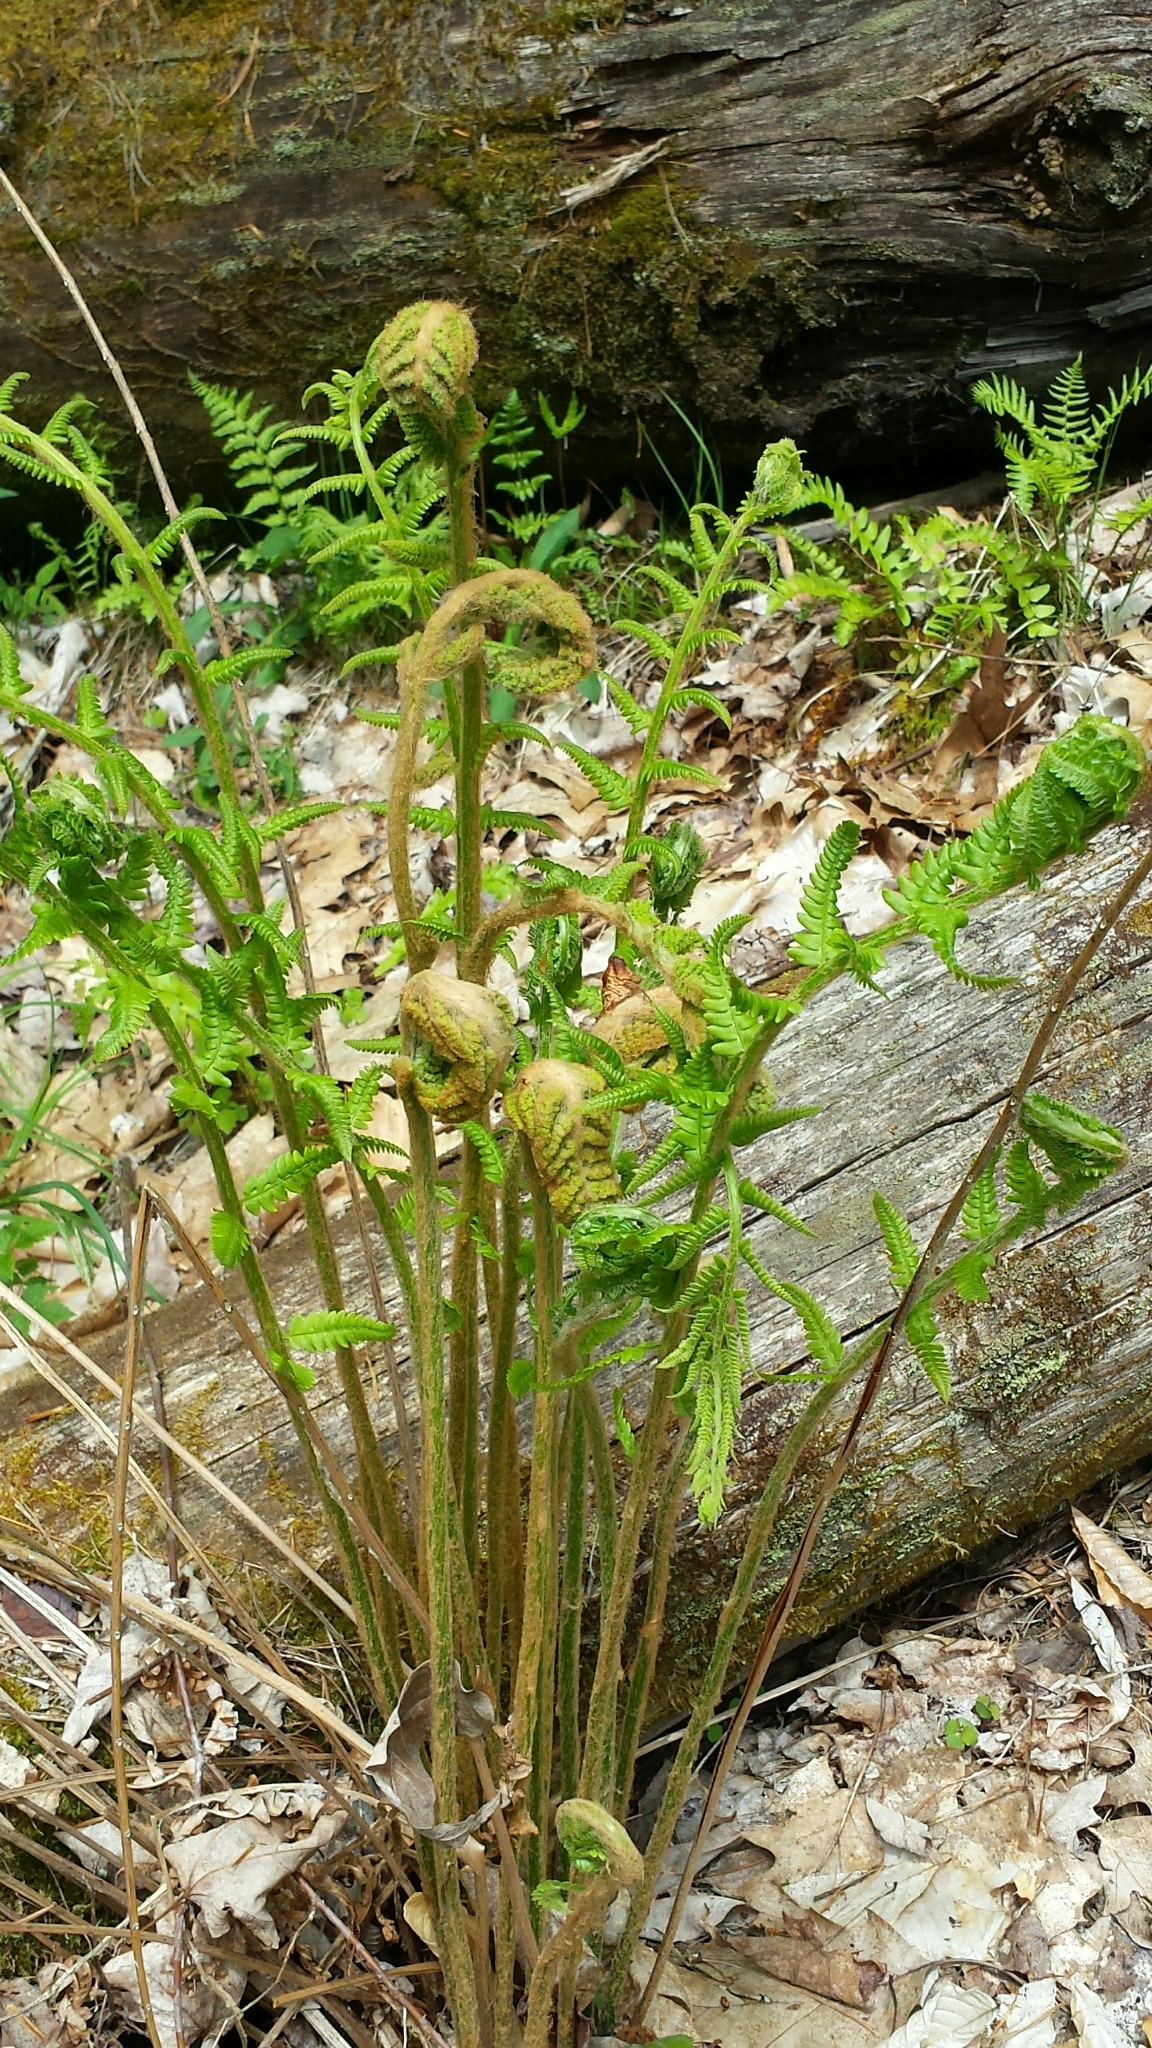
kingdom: Plantae
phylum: Tracheophyta
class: Polypodiopsida
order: Osmundales
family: Osmundaceae
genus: Osmundastrum
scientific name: Osmundastrum cinnamomeum
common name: Cinnamon fern
